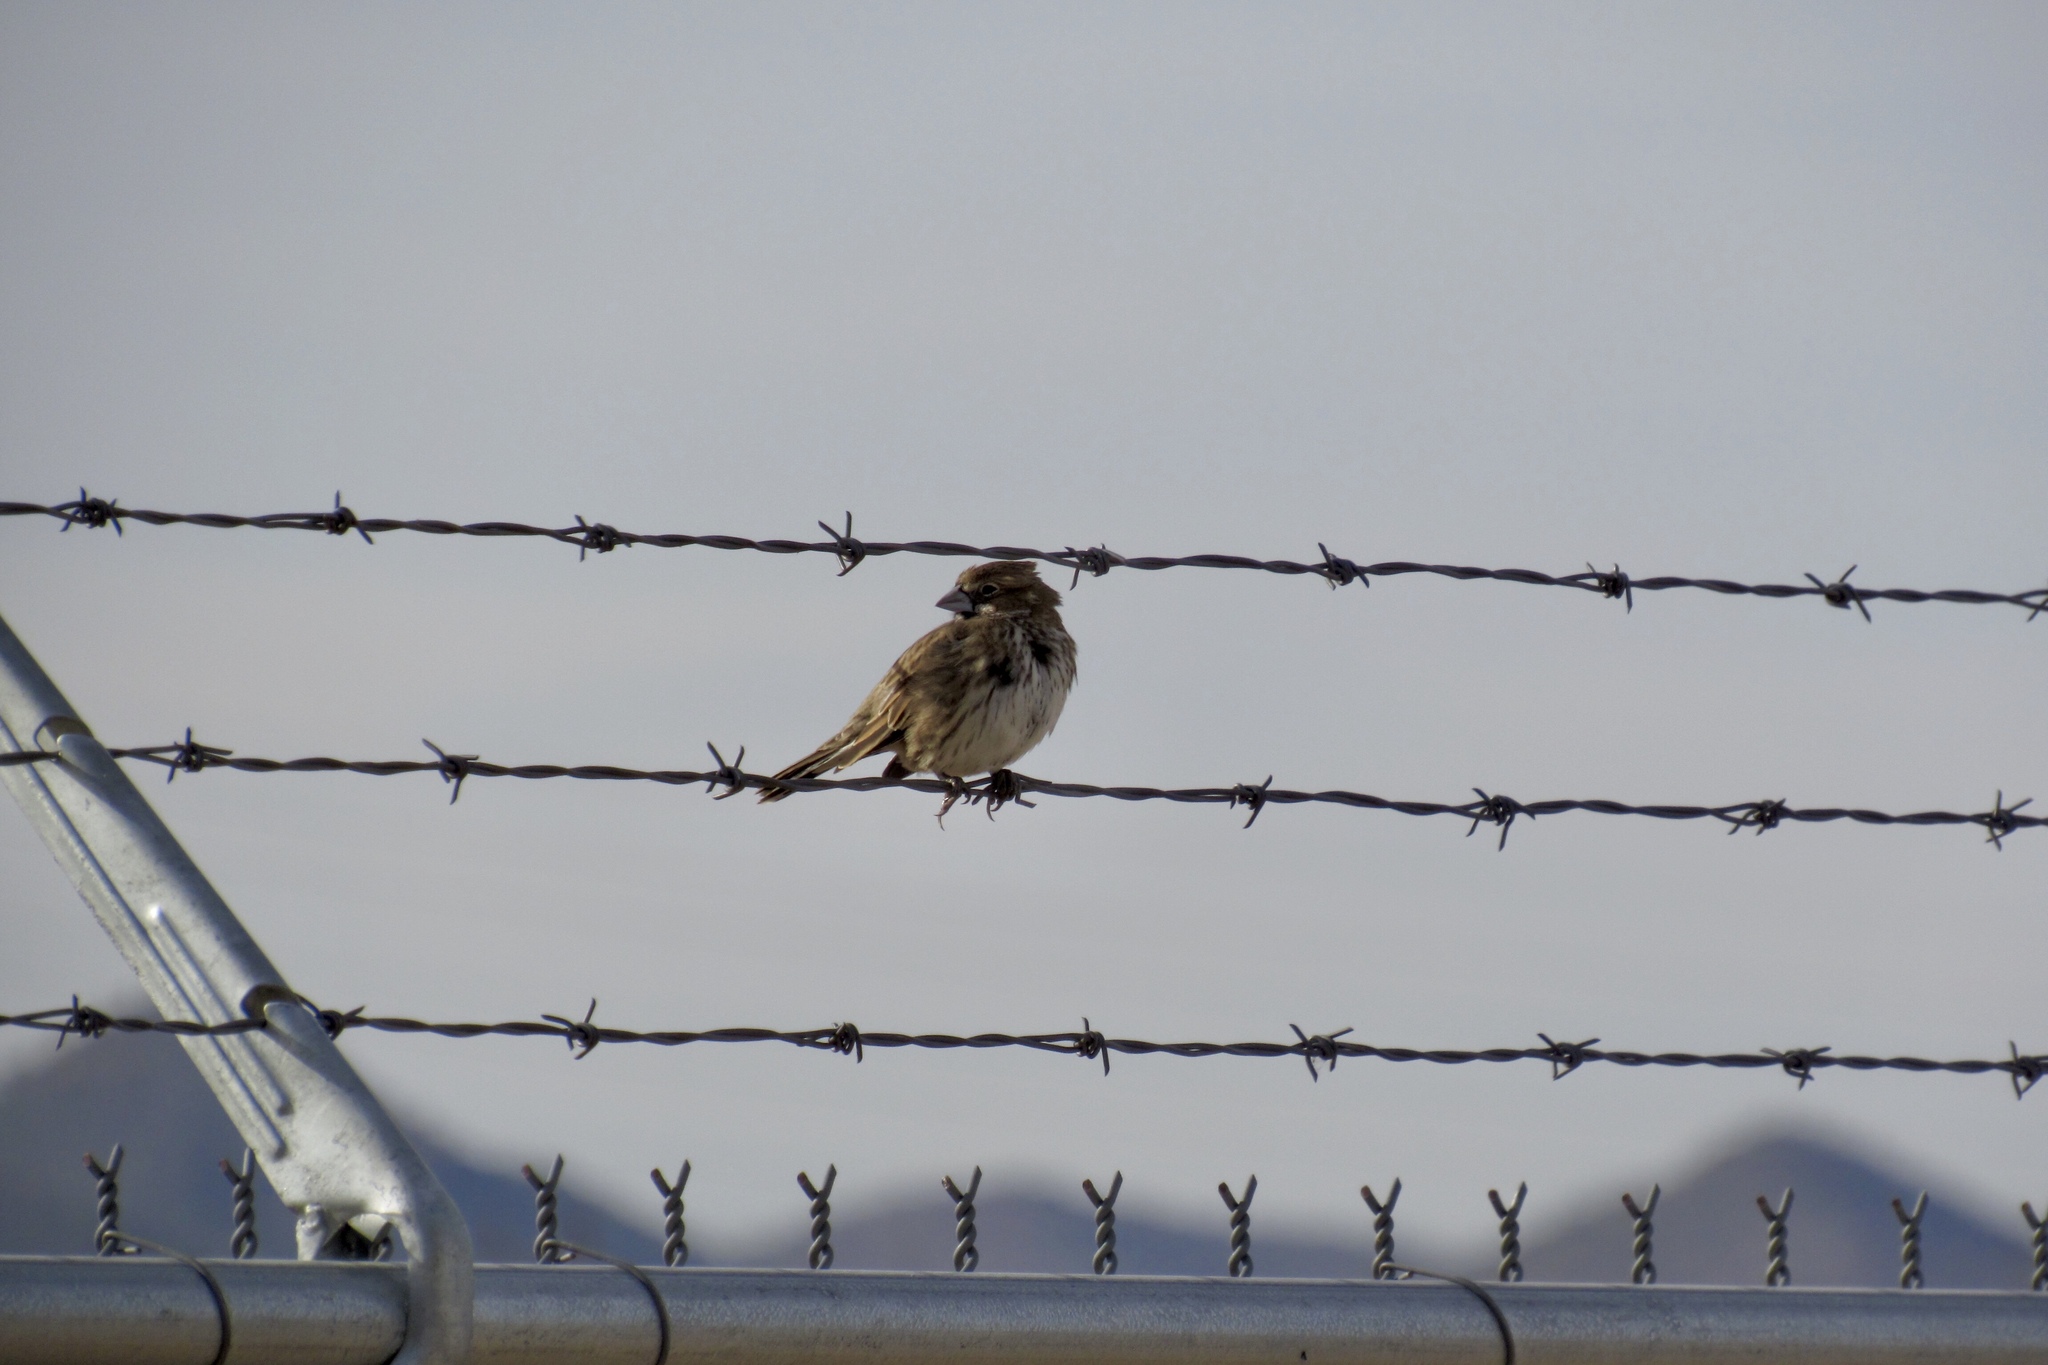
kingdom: Animalia
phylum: Chordata
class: Aves
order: Passeriformes
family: Passerellidae
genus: Calamospiza
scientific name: Calamospiza melanocorys
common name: Lark bunting
